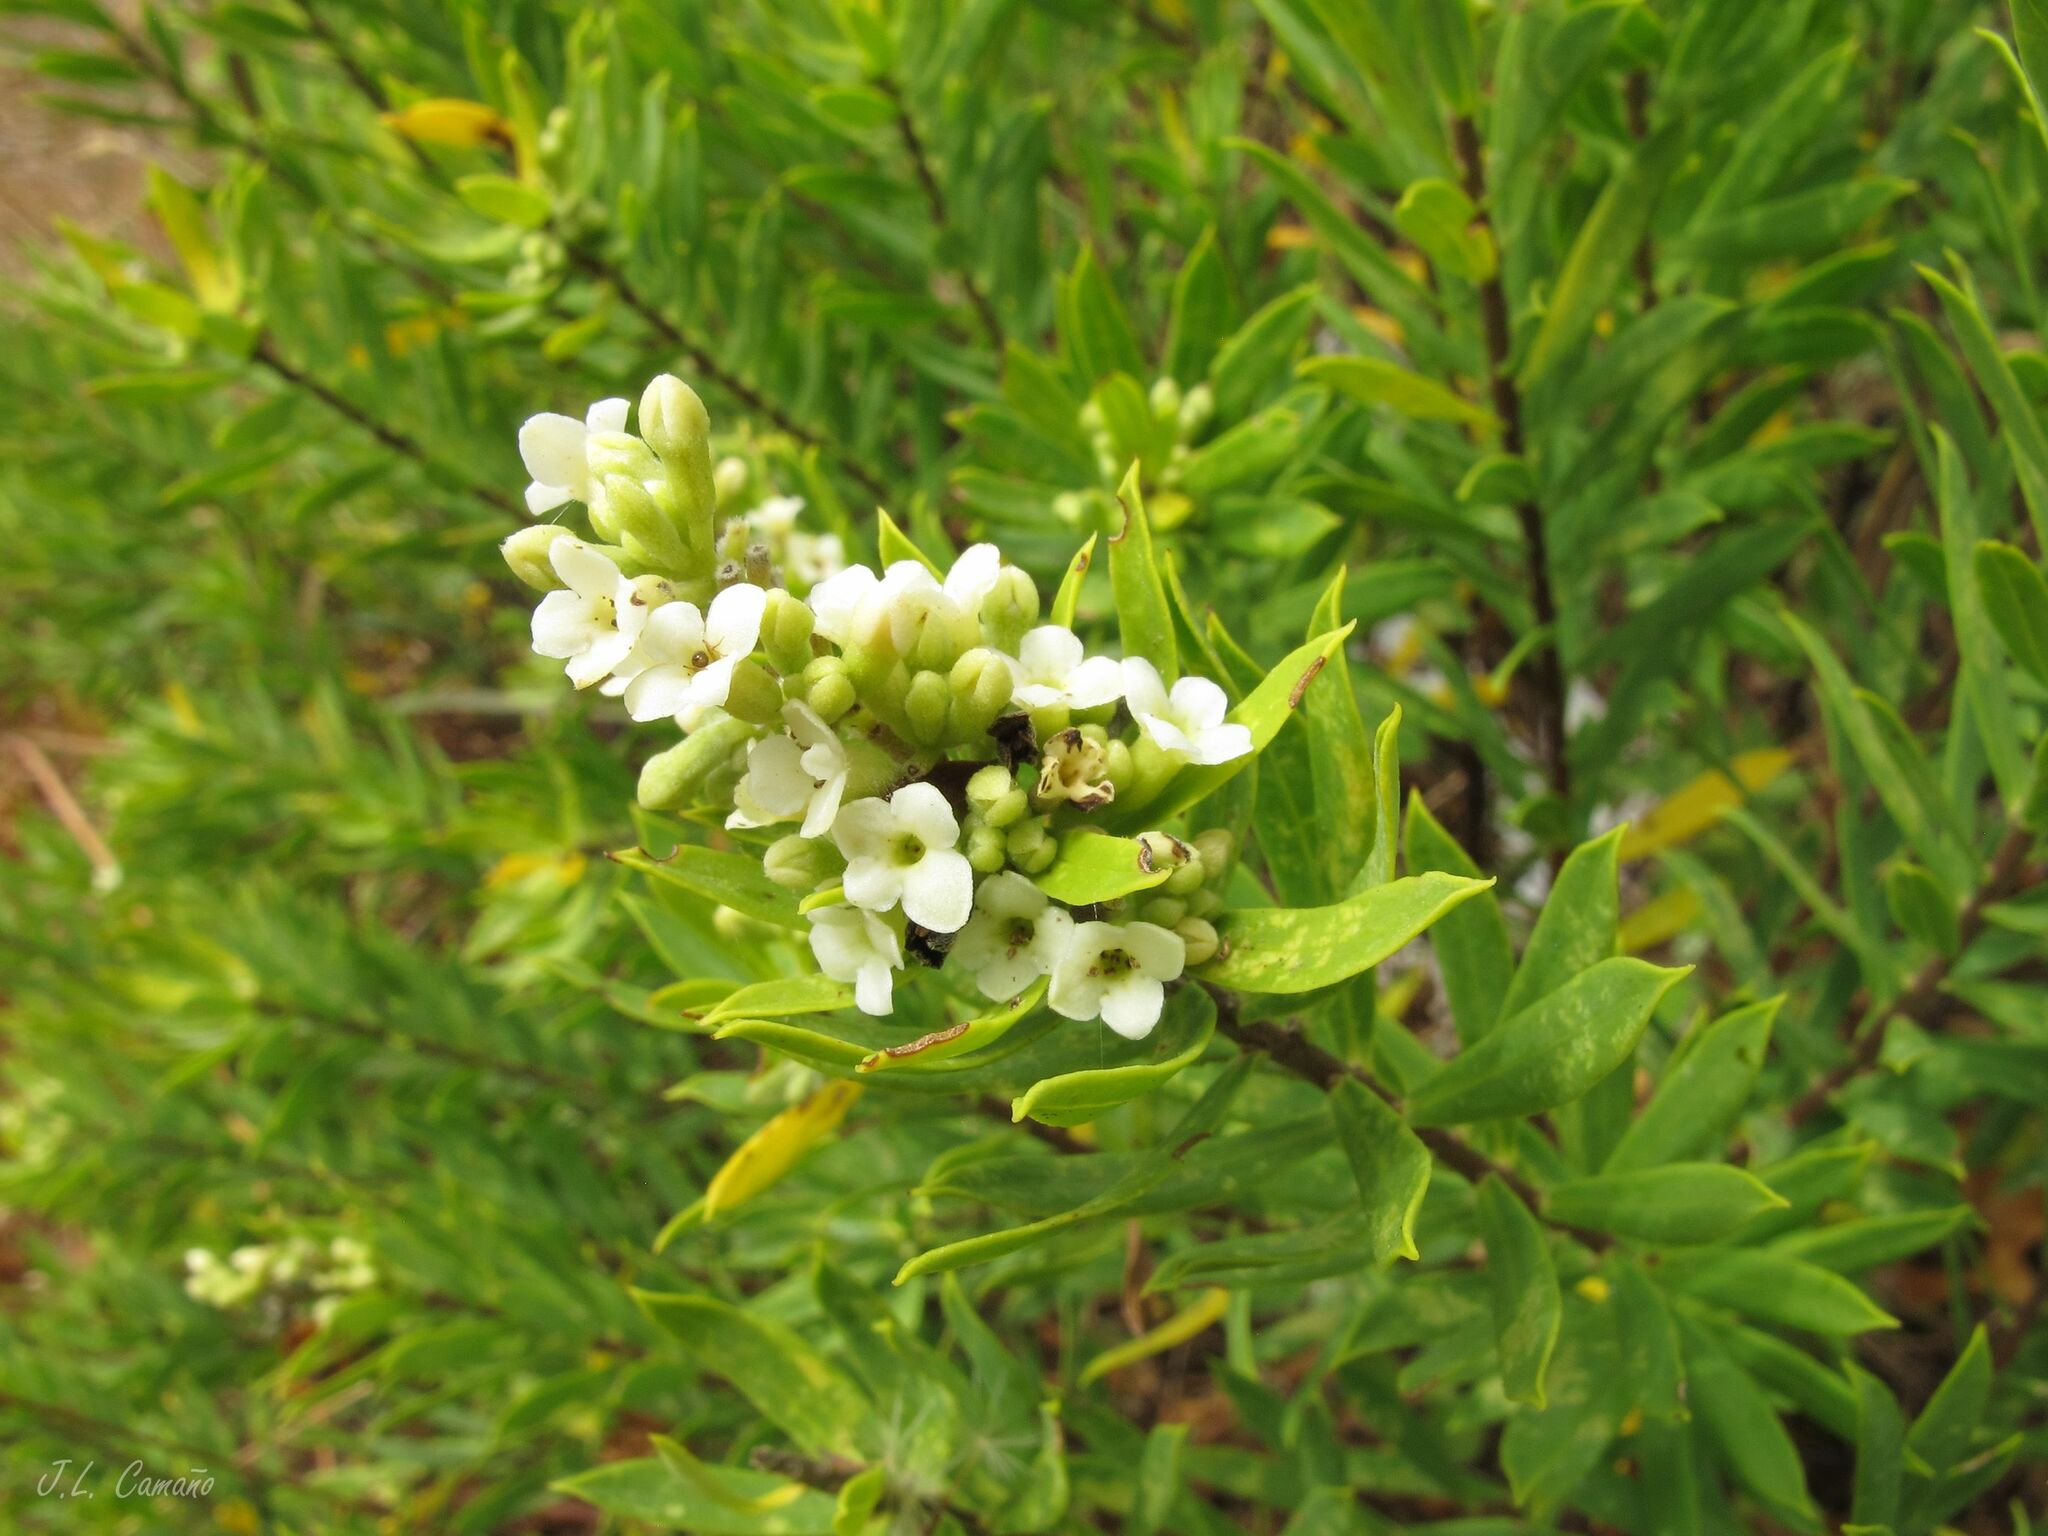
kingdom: Plantae
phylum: Tracheophyta
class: Magnoliopsida
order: Malvales
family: Thymelaeaceae
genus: Daphne
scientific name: Daphne gnidium
